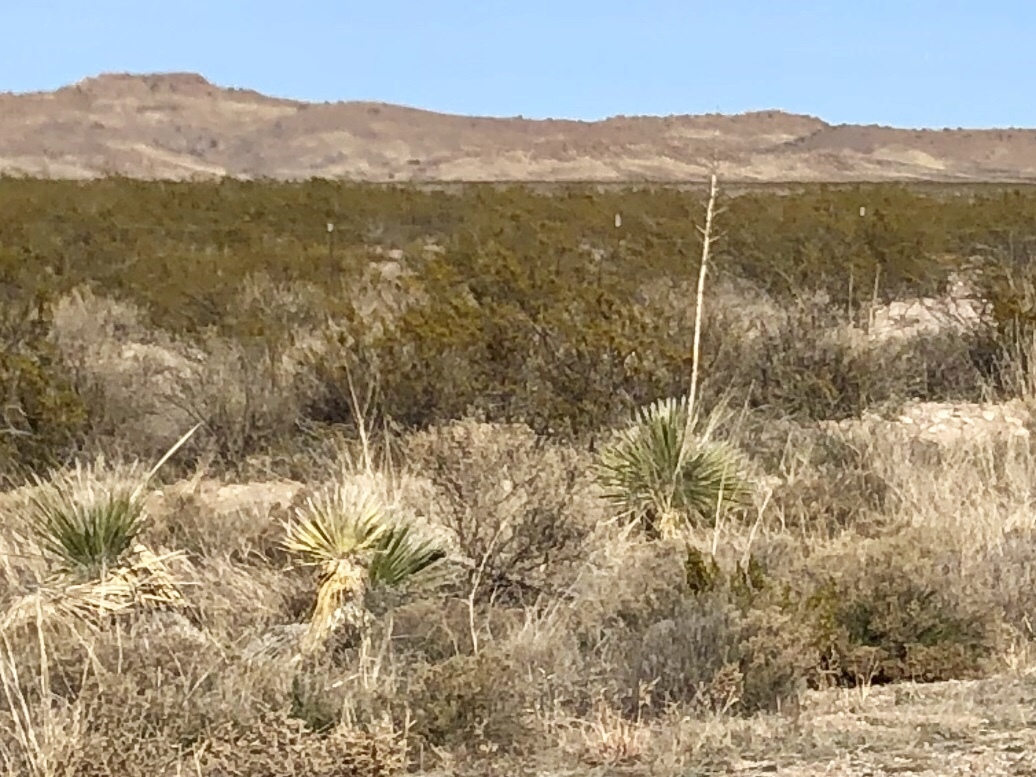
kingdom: Plantae
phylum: Tracheophyta
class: Liliopsida
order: Asparagales
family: Asparagaceae
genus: Yucca
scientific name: Yucca elata
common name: Palmella
